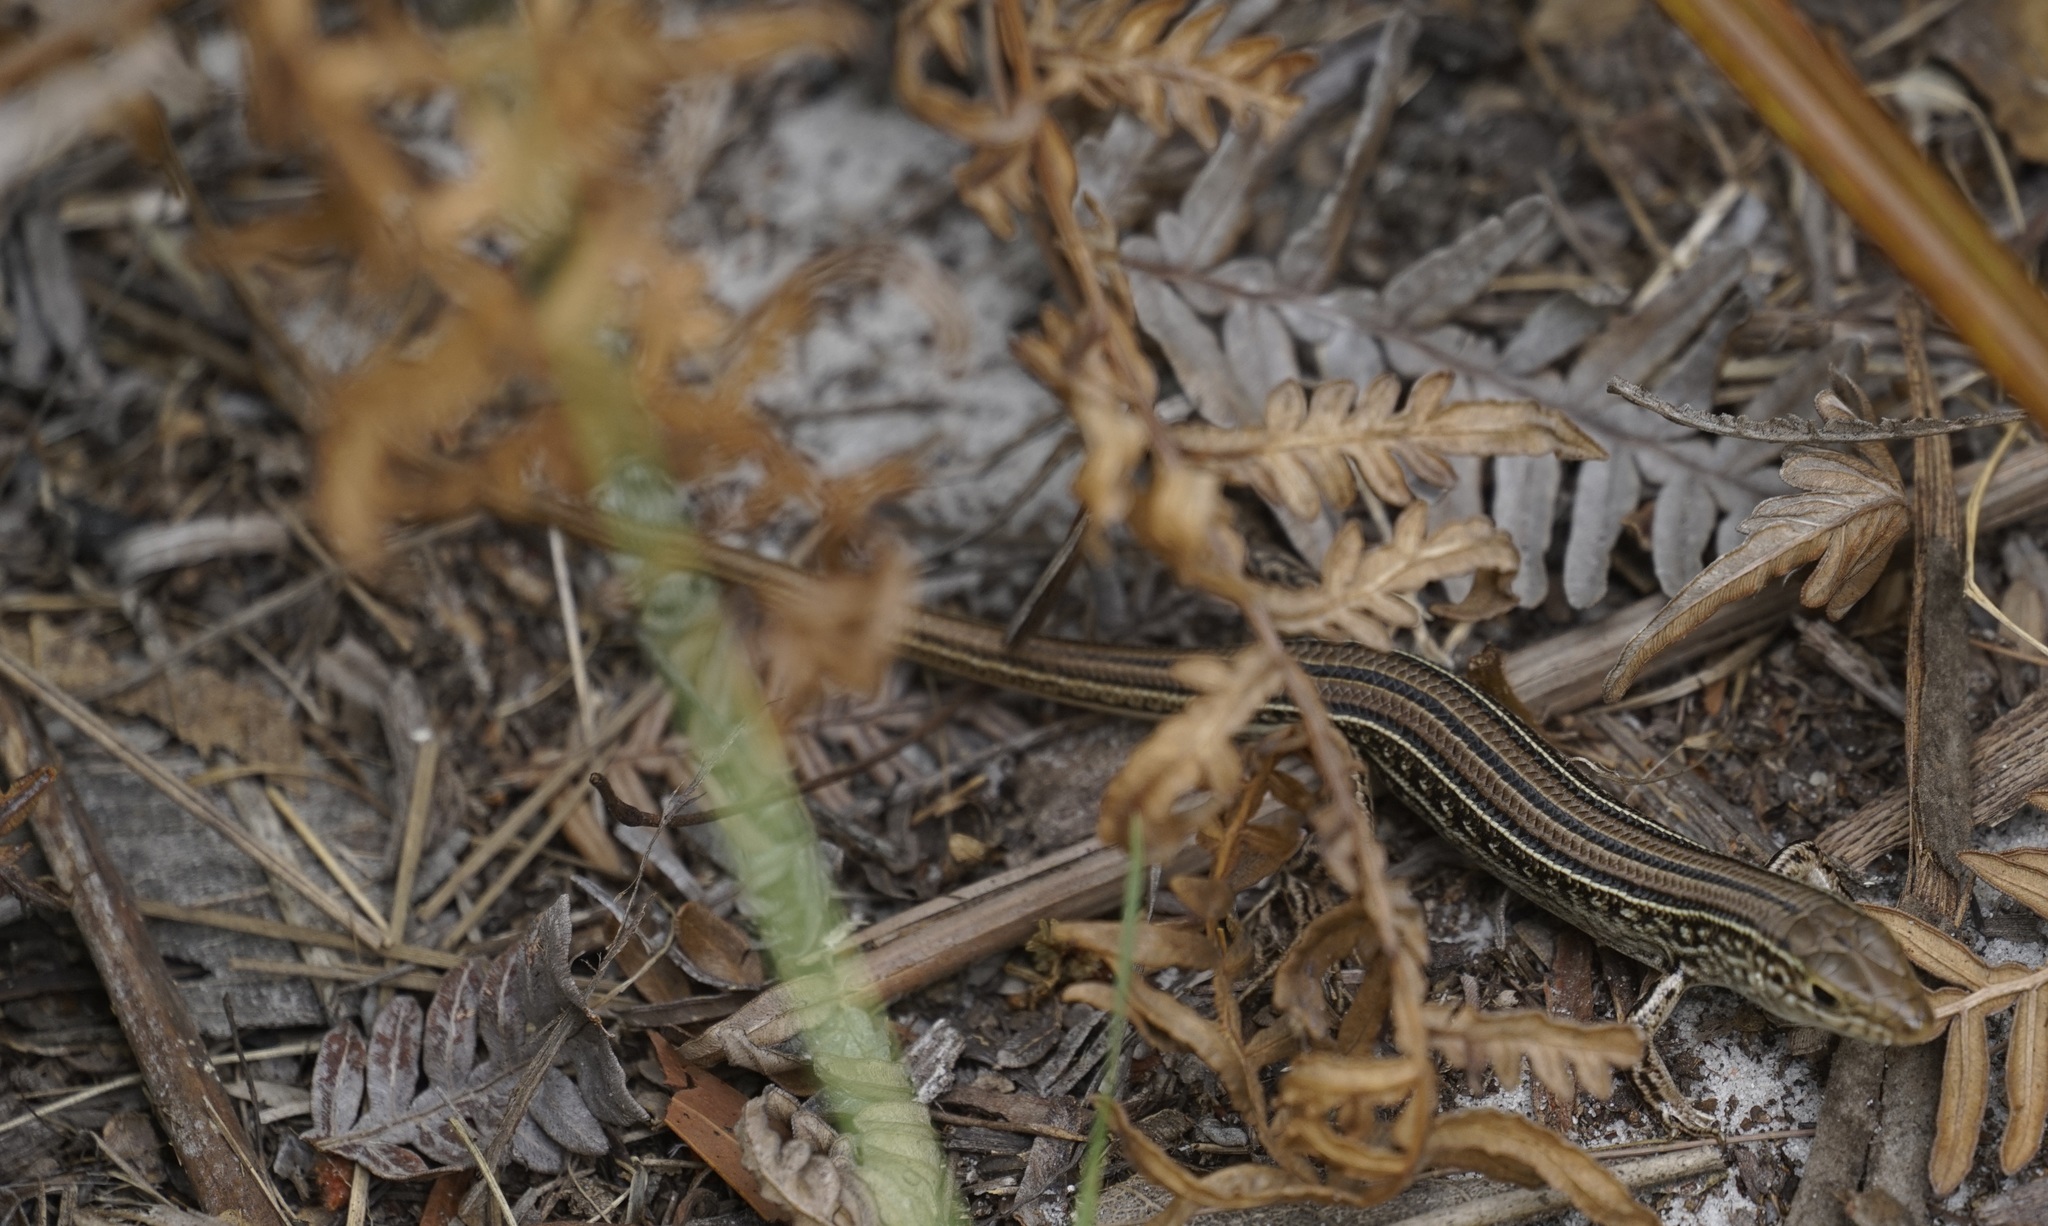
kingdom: Animalia
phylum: Chordata
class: Squamata
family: Scincidae
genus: Ctenotus
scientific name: Ctenotus robustus
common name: Robust ctenotus
